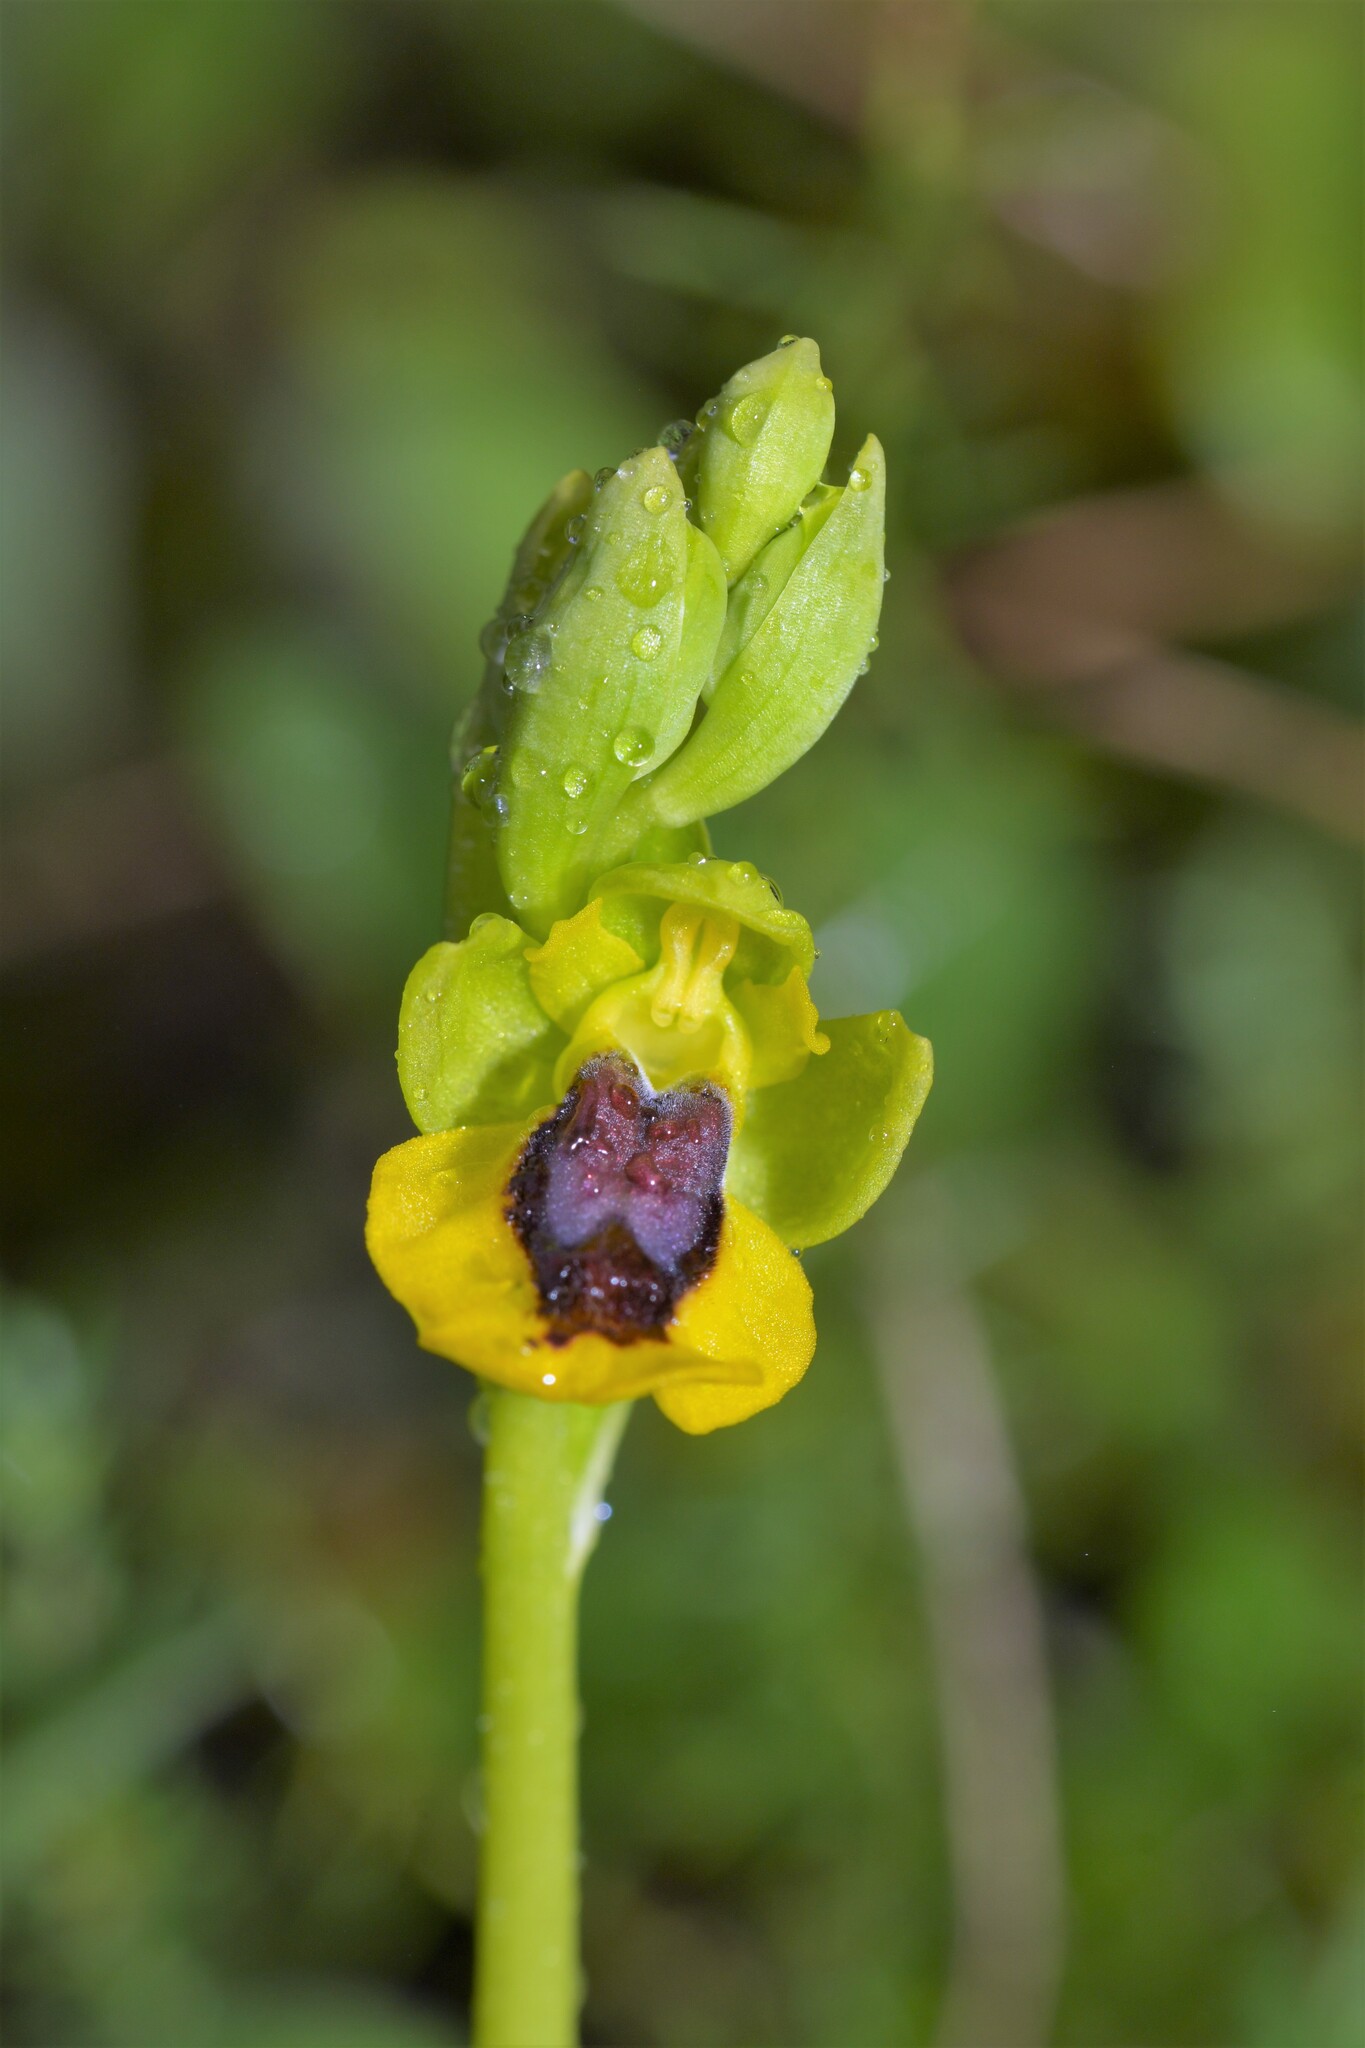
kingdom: Plantae
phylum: Tracheophyta
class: Liliopsida
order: Asparagales
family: Orchidaceae
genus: Ophrys
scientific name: Ophrys lutea
